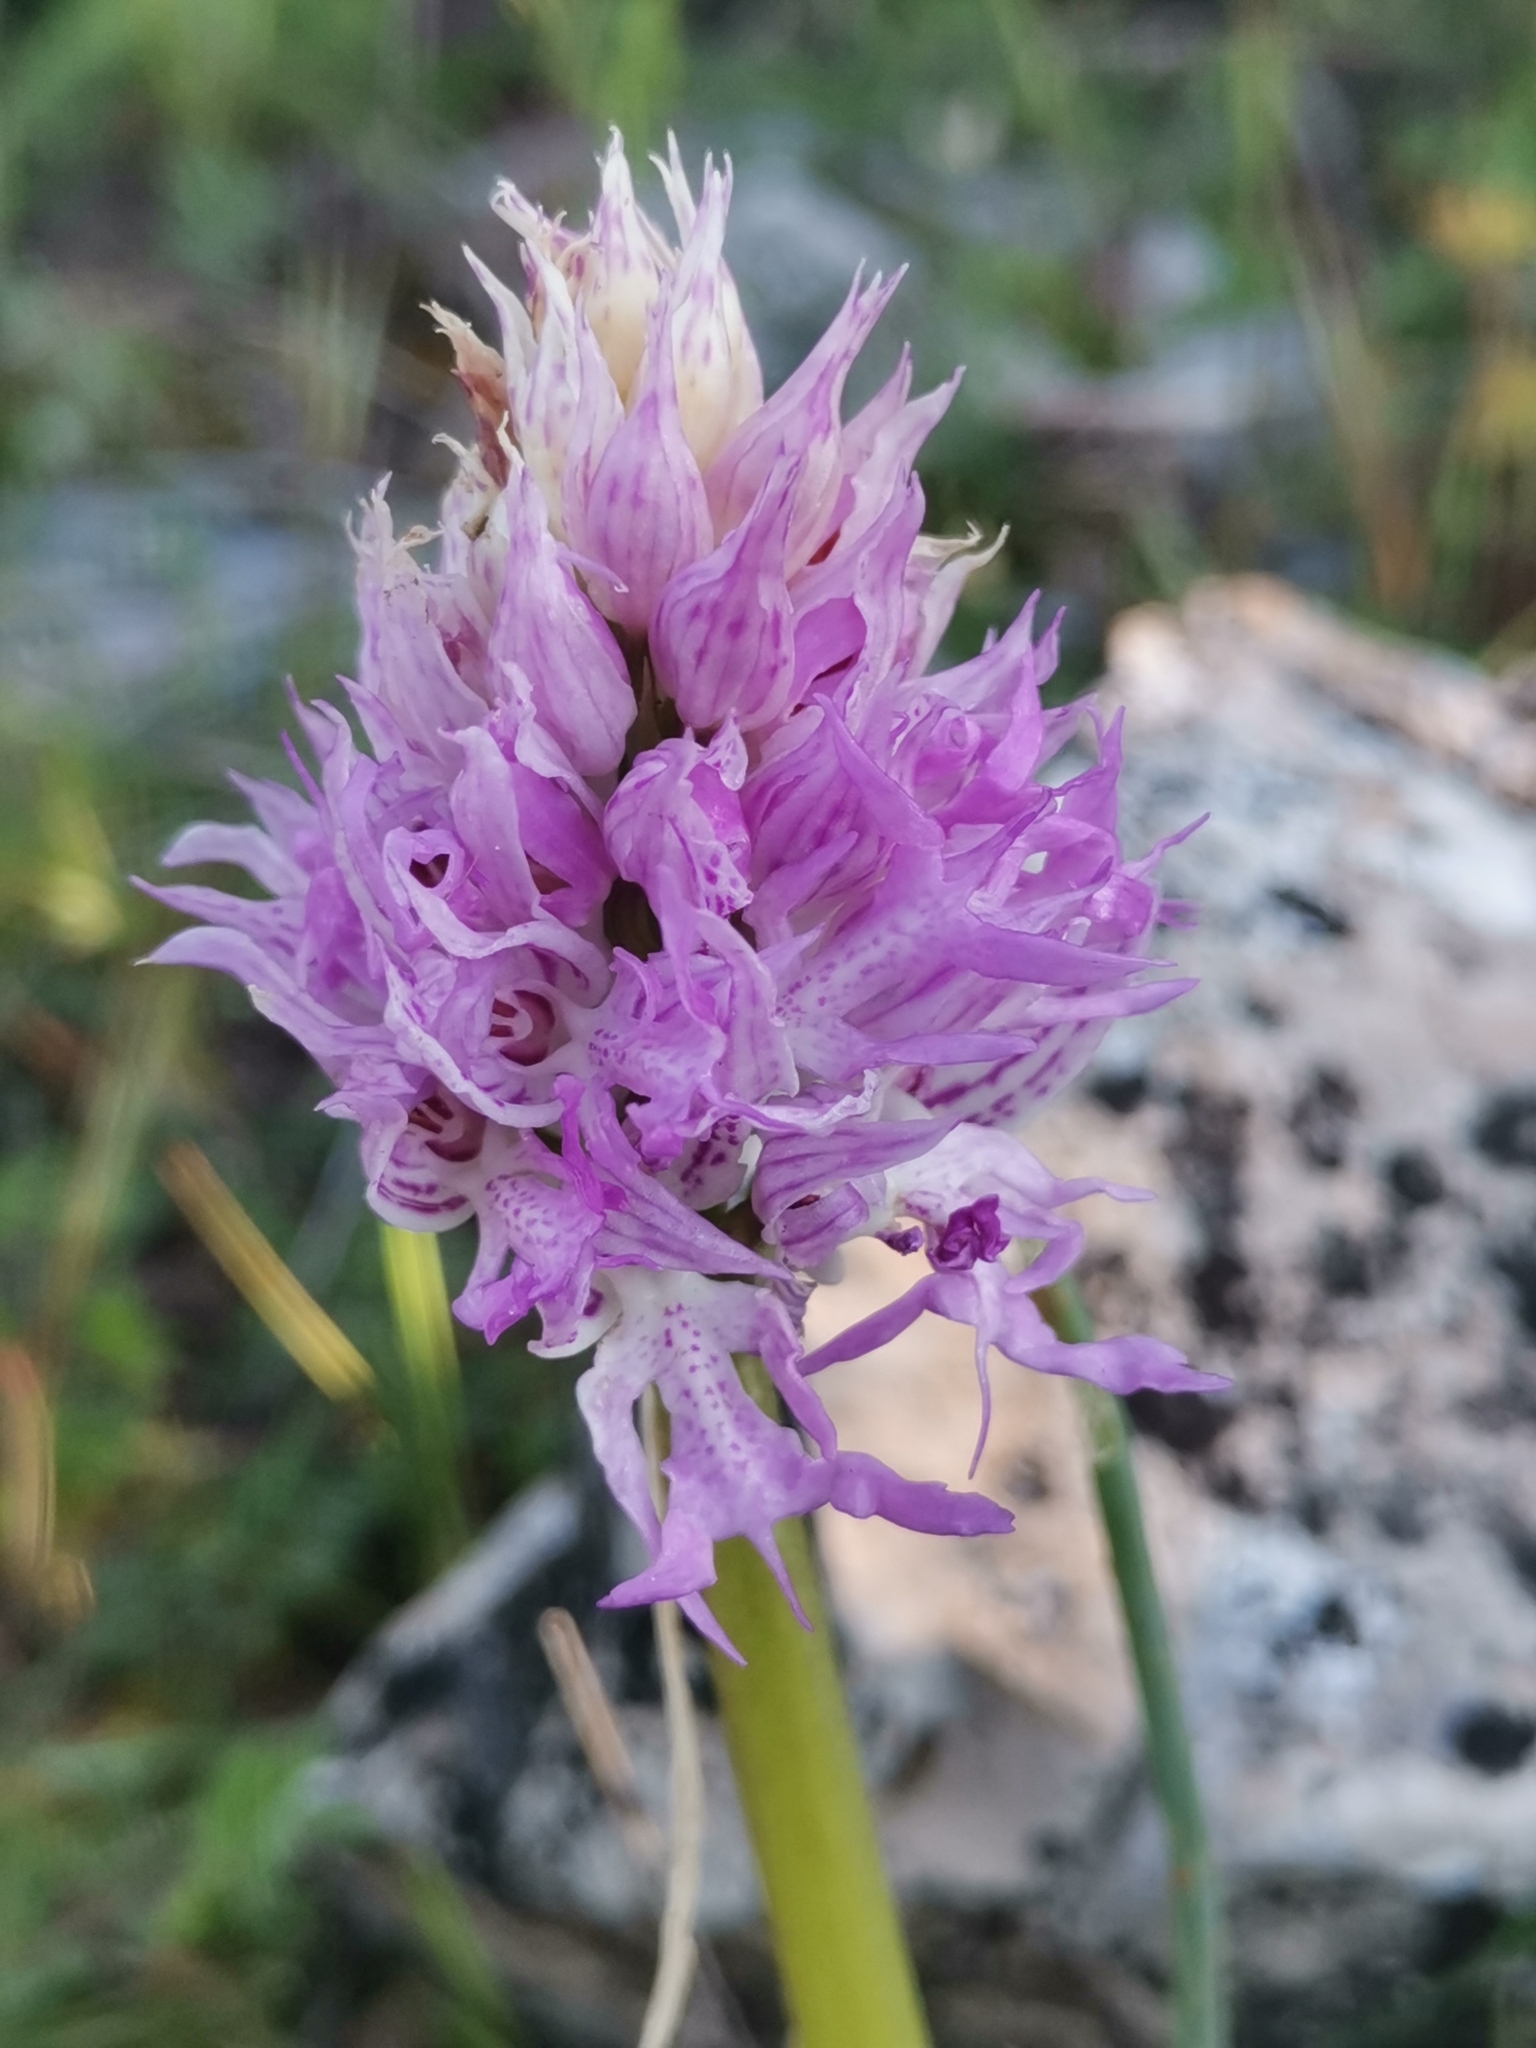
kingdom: Plantae
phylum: Tracheophyta
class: Liliopsida
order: Asparagales
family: Orchidaceae
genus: Orchis
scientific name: Orchis italica
